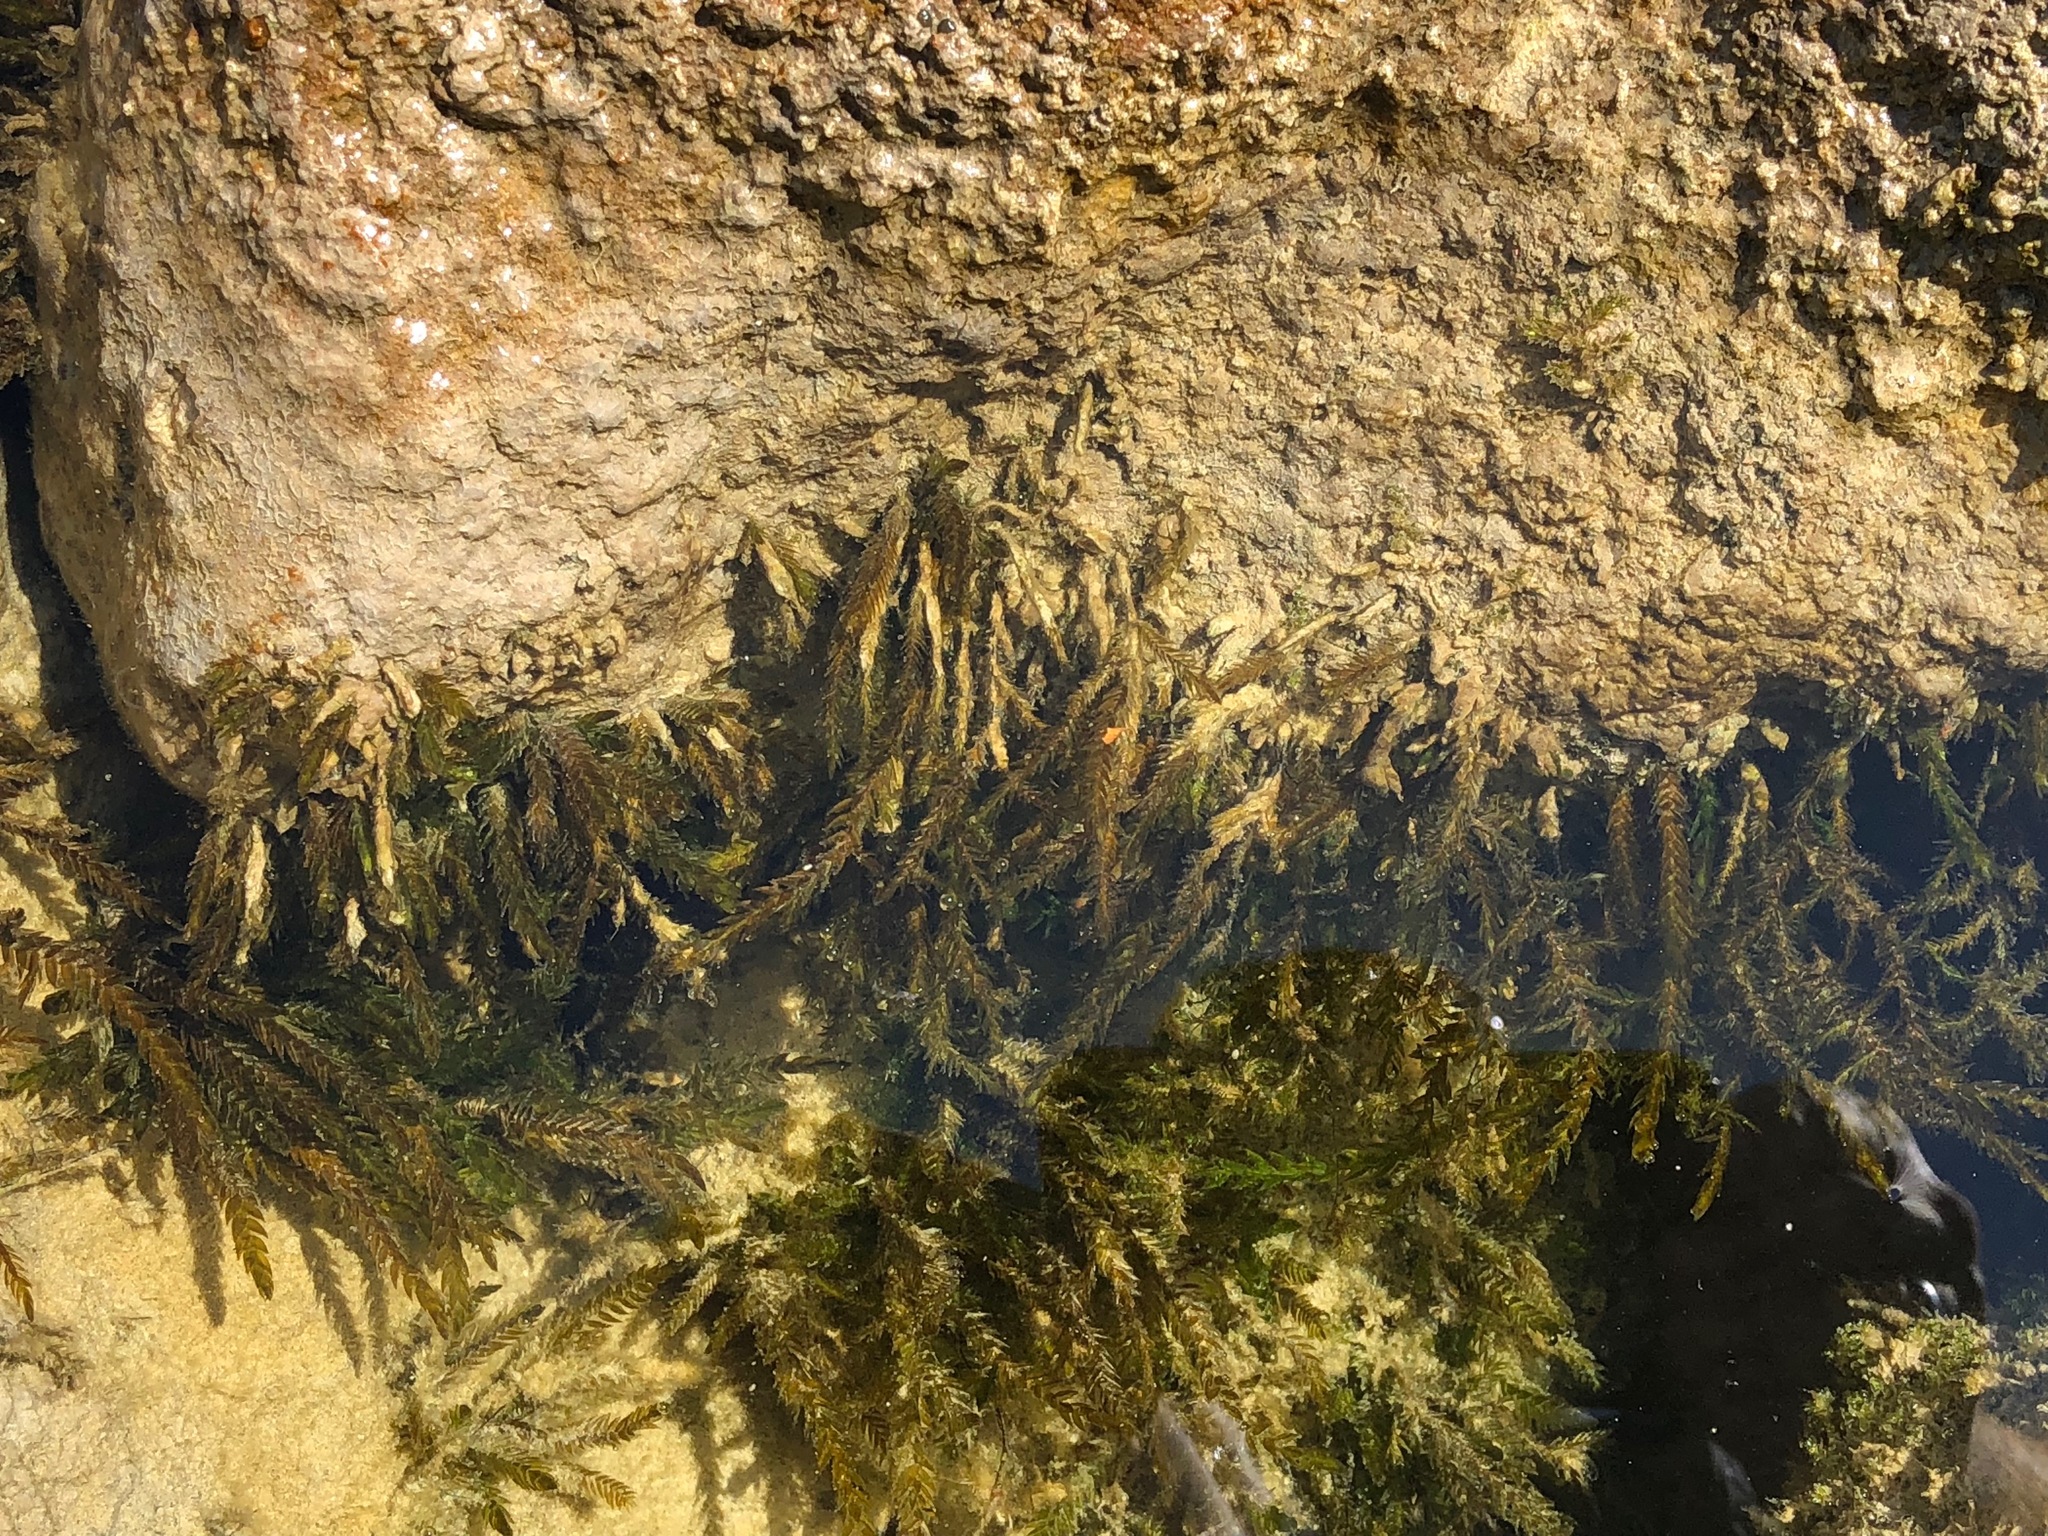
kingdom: Plantae
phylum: Bryophyta
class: Bryopsida
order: Hypnales
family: Fontinalaceae
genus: Fontinalis
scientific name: Fontinalis antipyretica
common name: Greater water-moss
